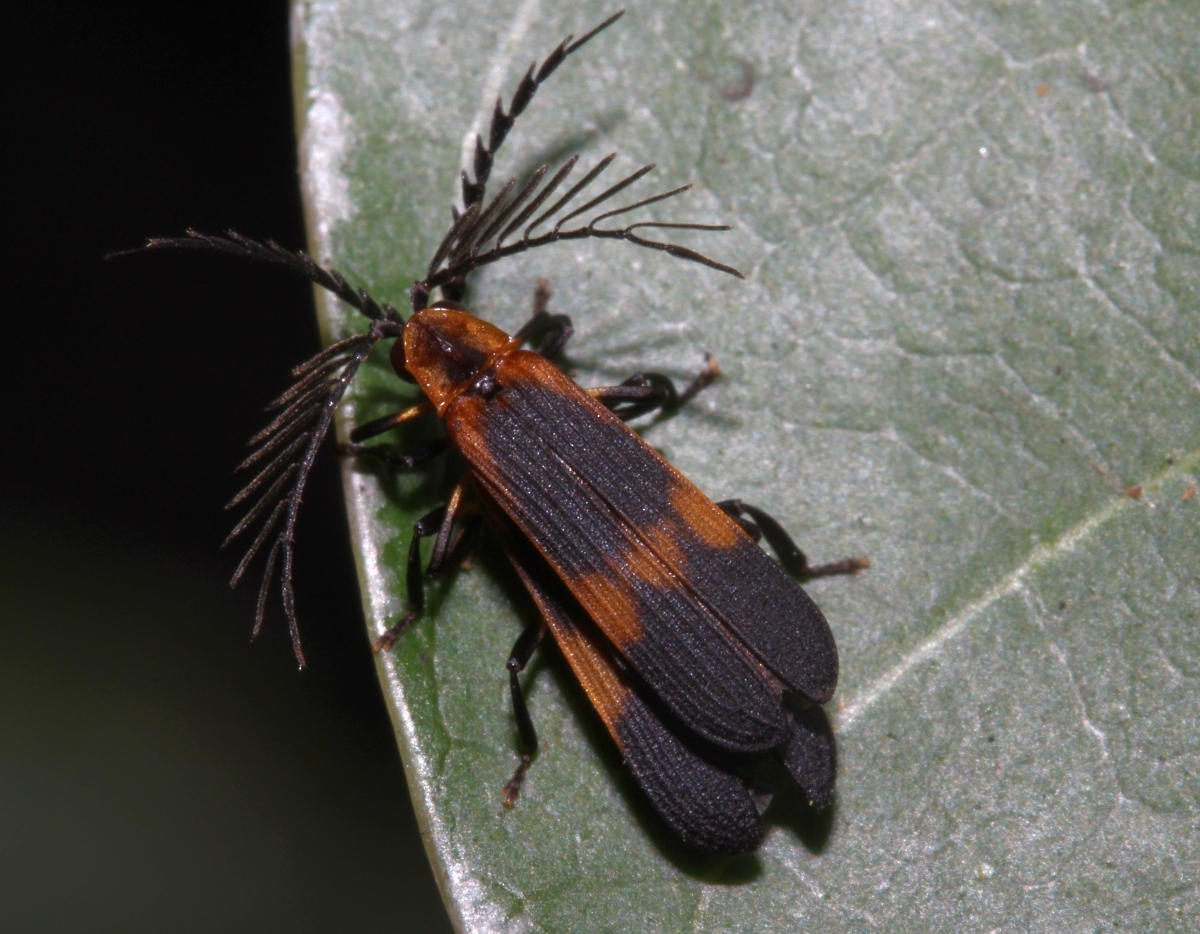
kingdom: Animalia
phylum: Arthropoda
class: Insecta
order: Coleoptera
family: Lycidae
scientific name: Lycidae
